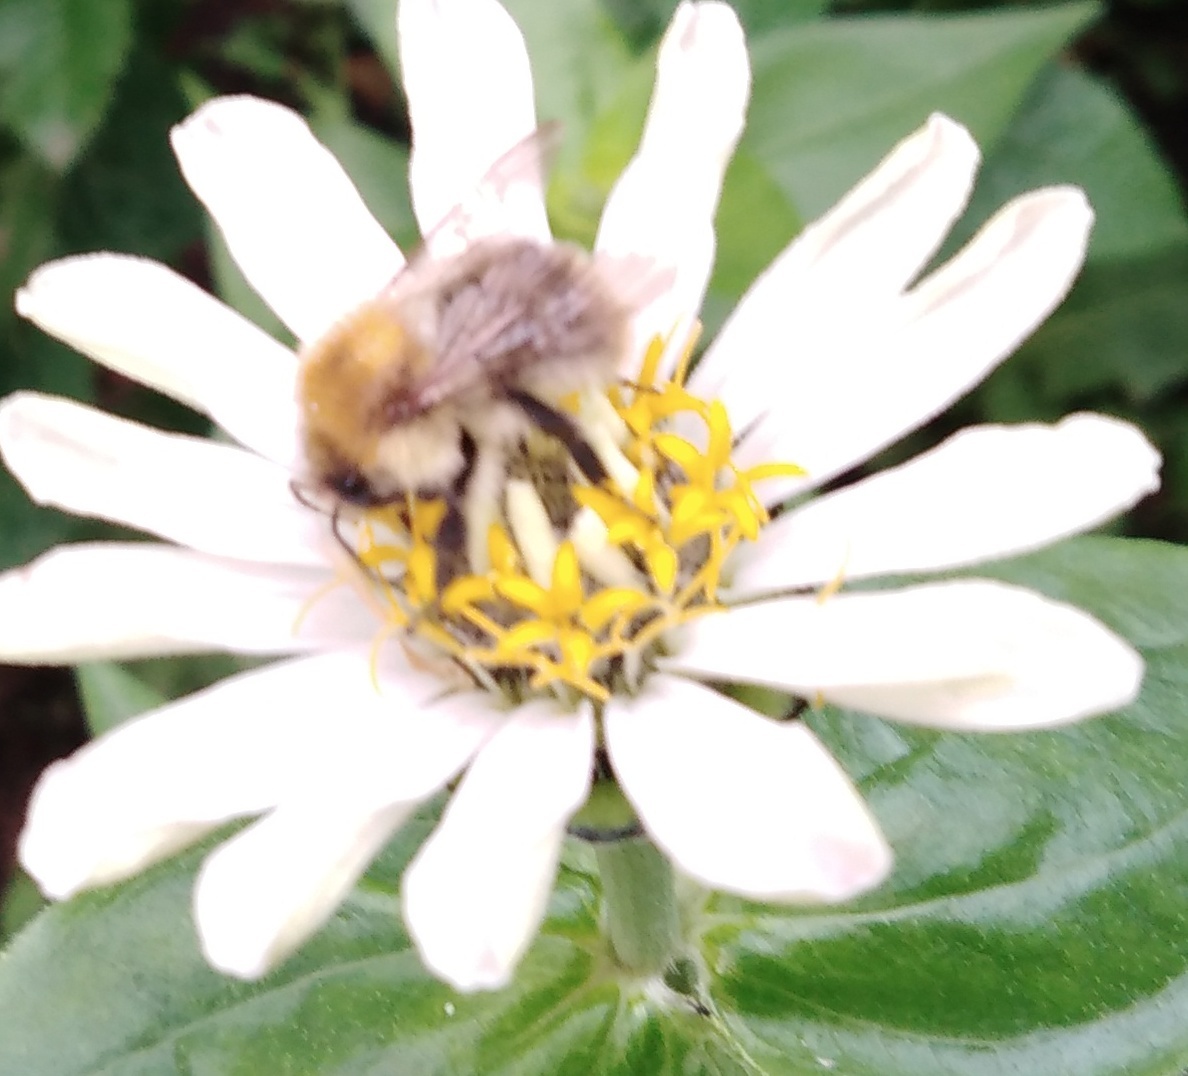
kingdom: Animalia
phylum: Arthropoda
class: Insecta
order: Hymenoptera
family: Apidae
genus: Bombus
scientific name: Bombus pascuorum
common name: Common carder bee
